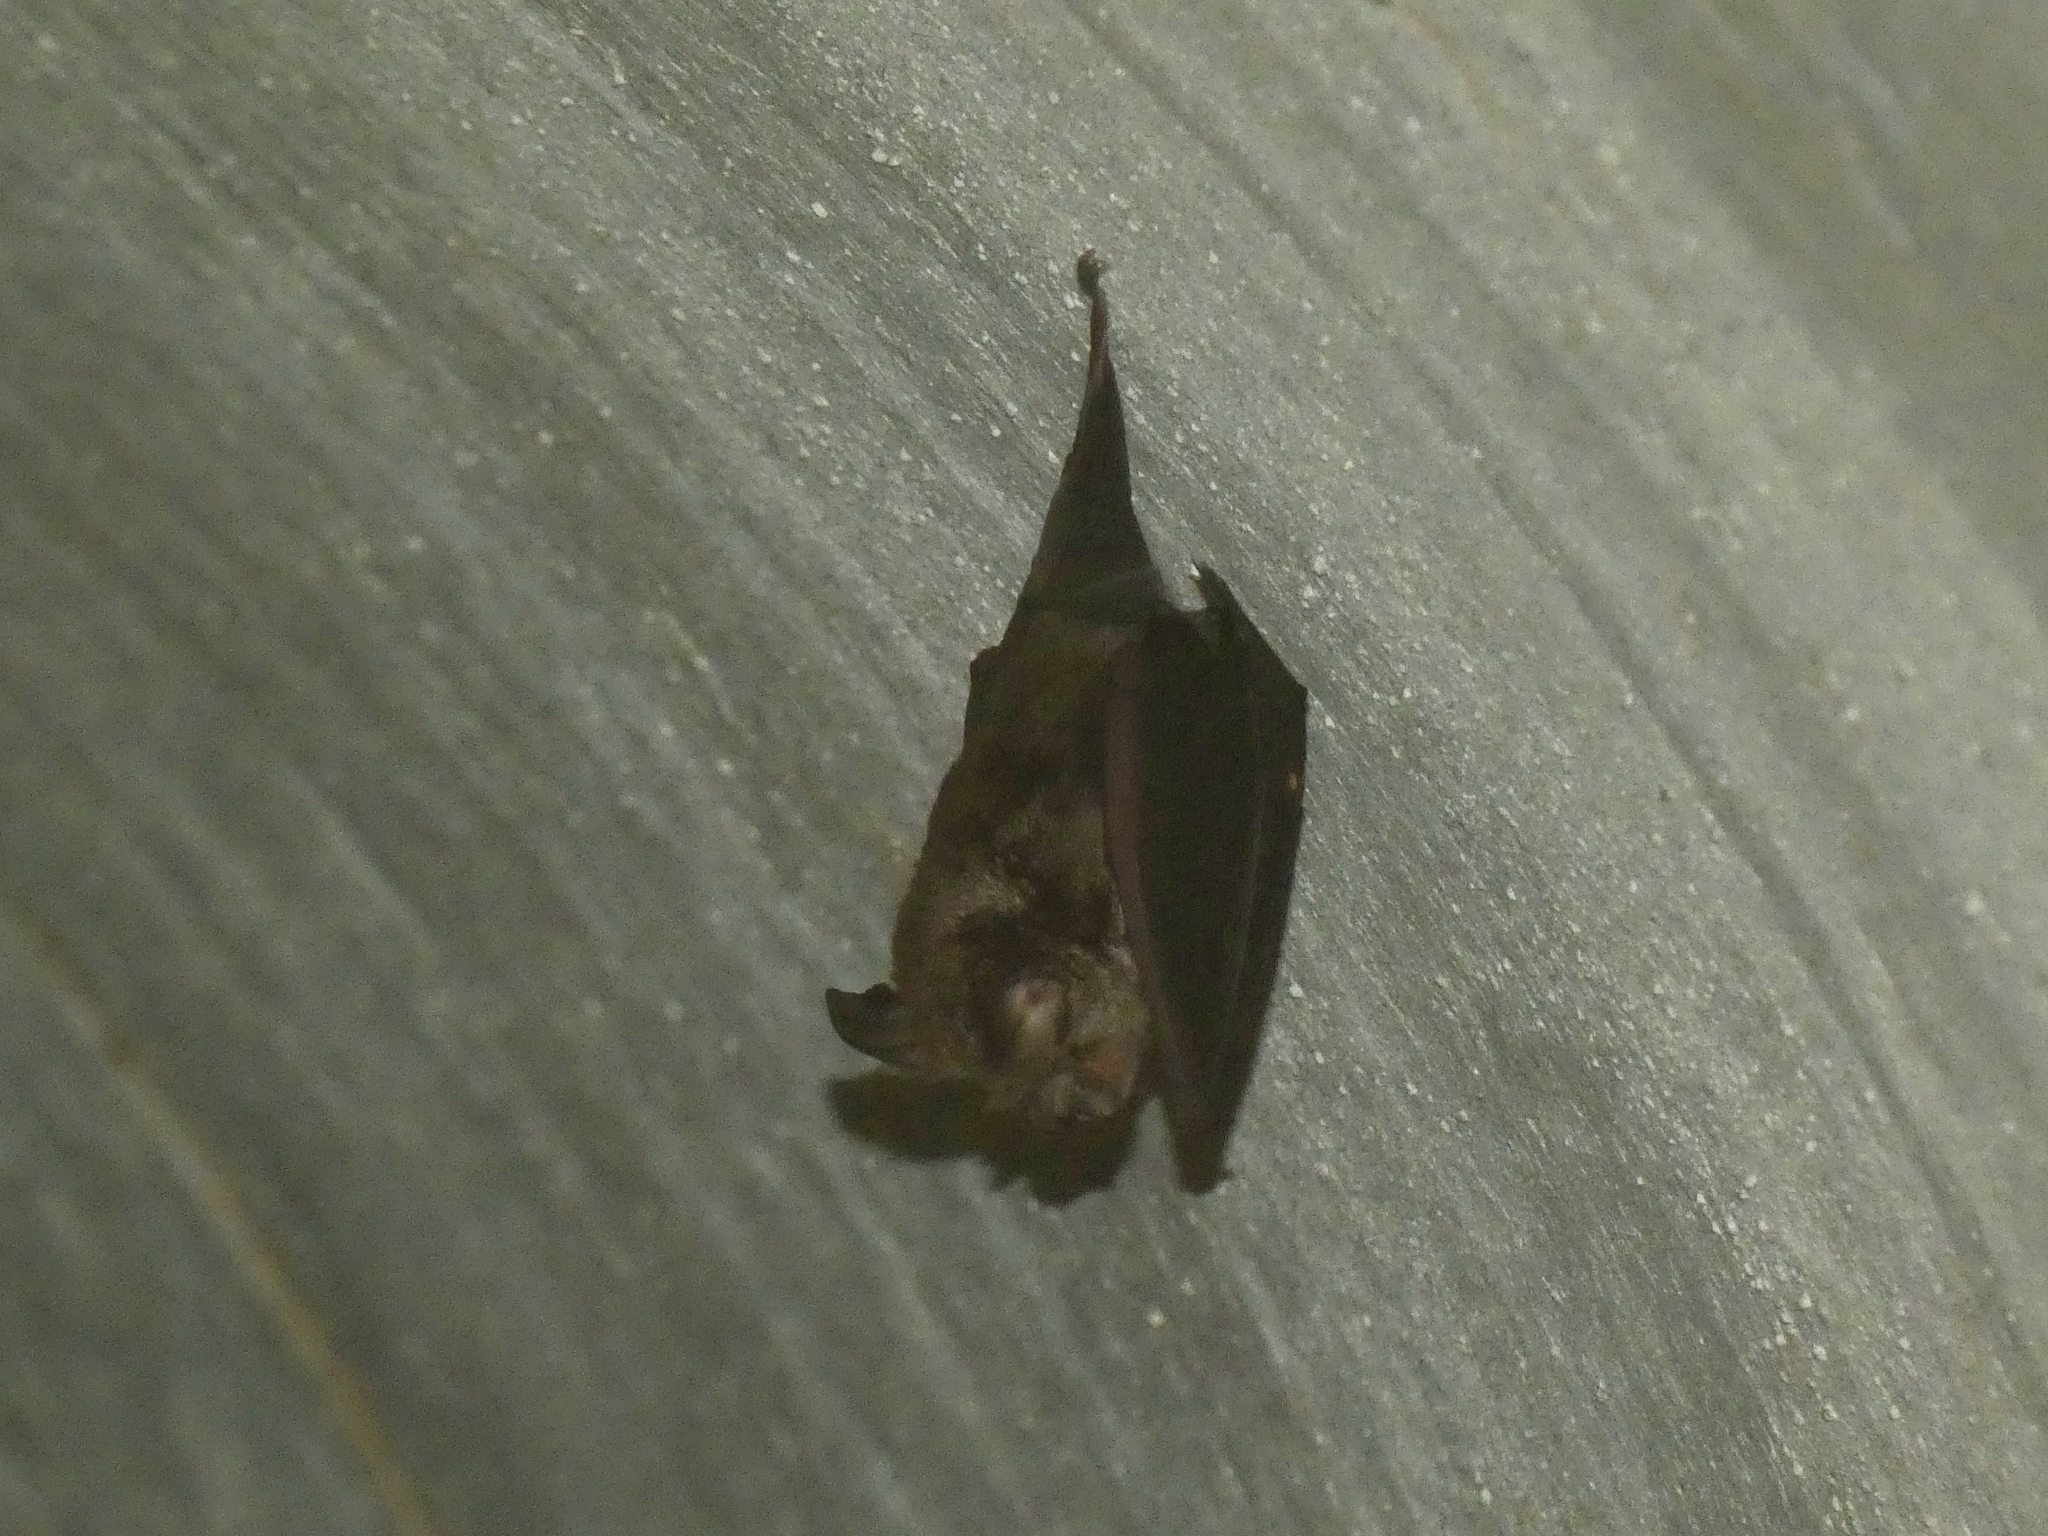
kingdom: Animalia
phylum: Chordata
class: Mammalia
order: Chiroptera
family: Rhinolophidae
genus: Rhinolophus
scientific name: Rhinolophus megaphyllus
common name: Smaller horseshoe bat
